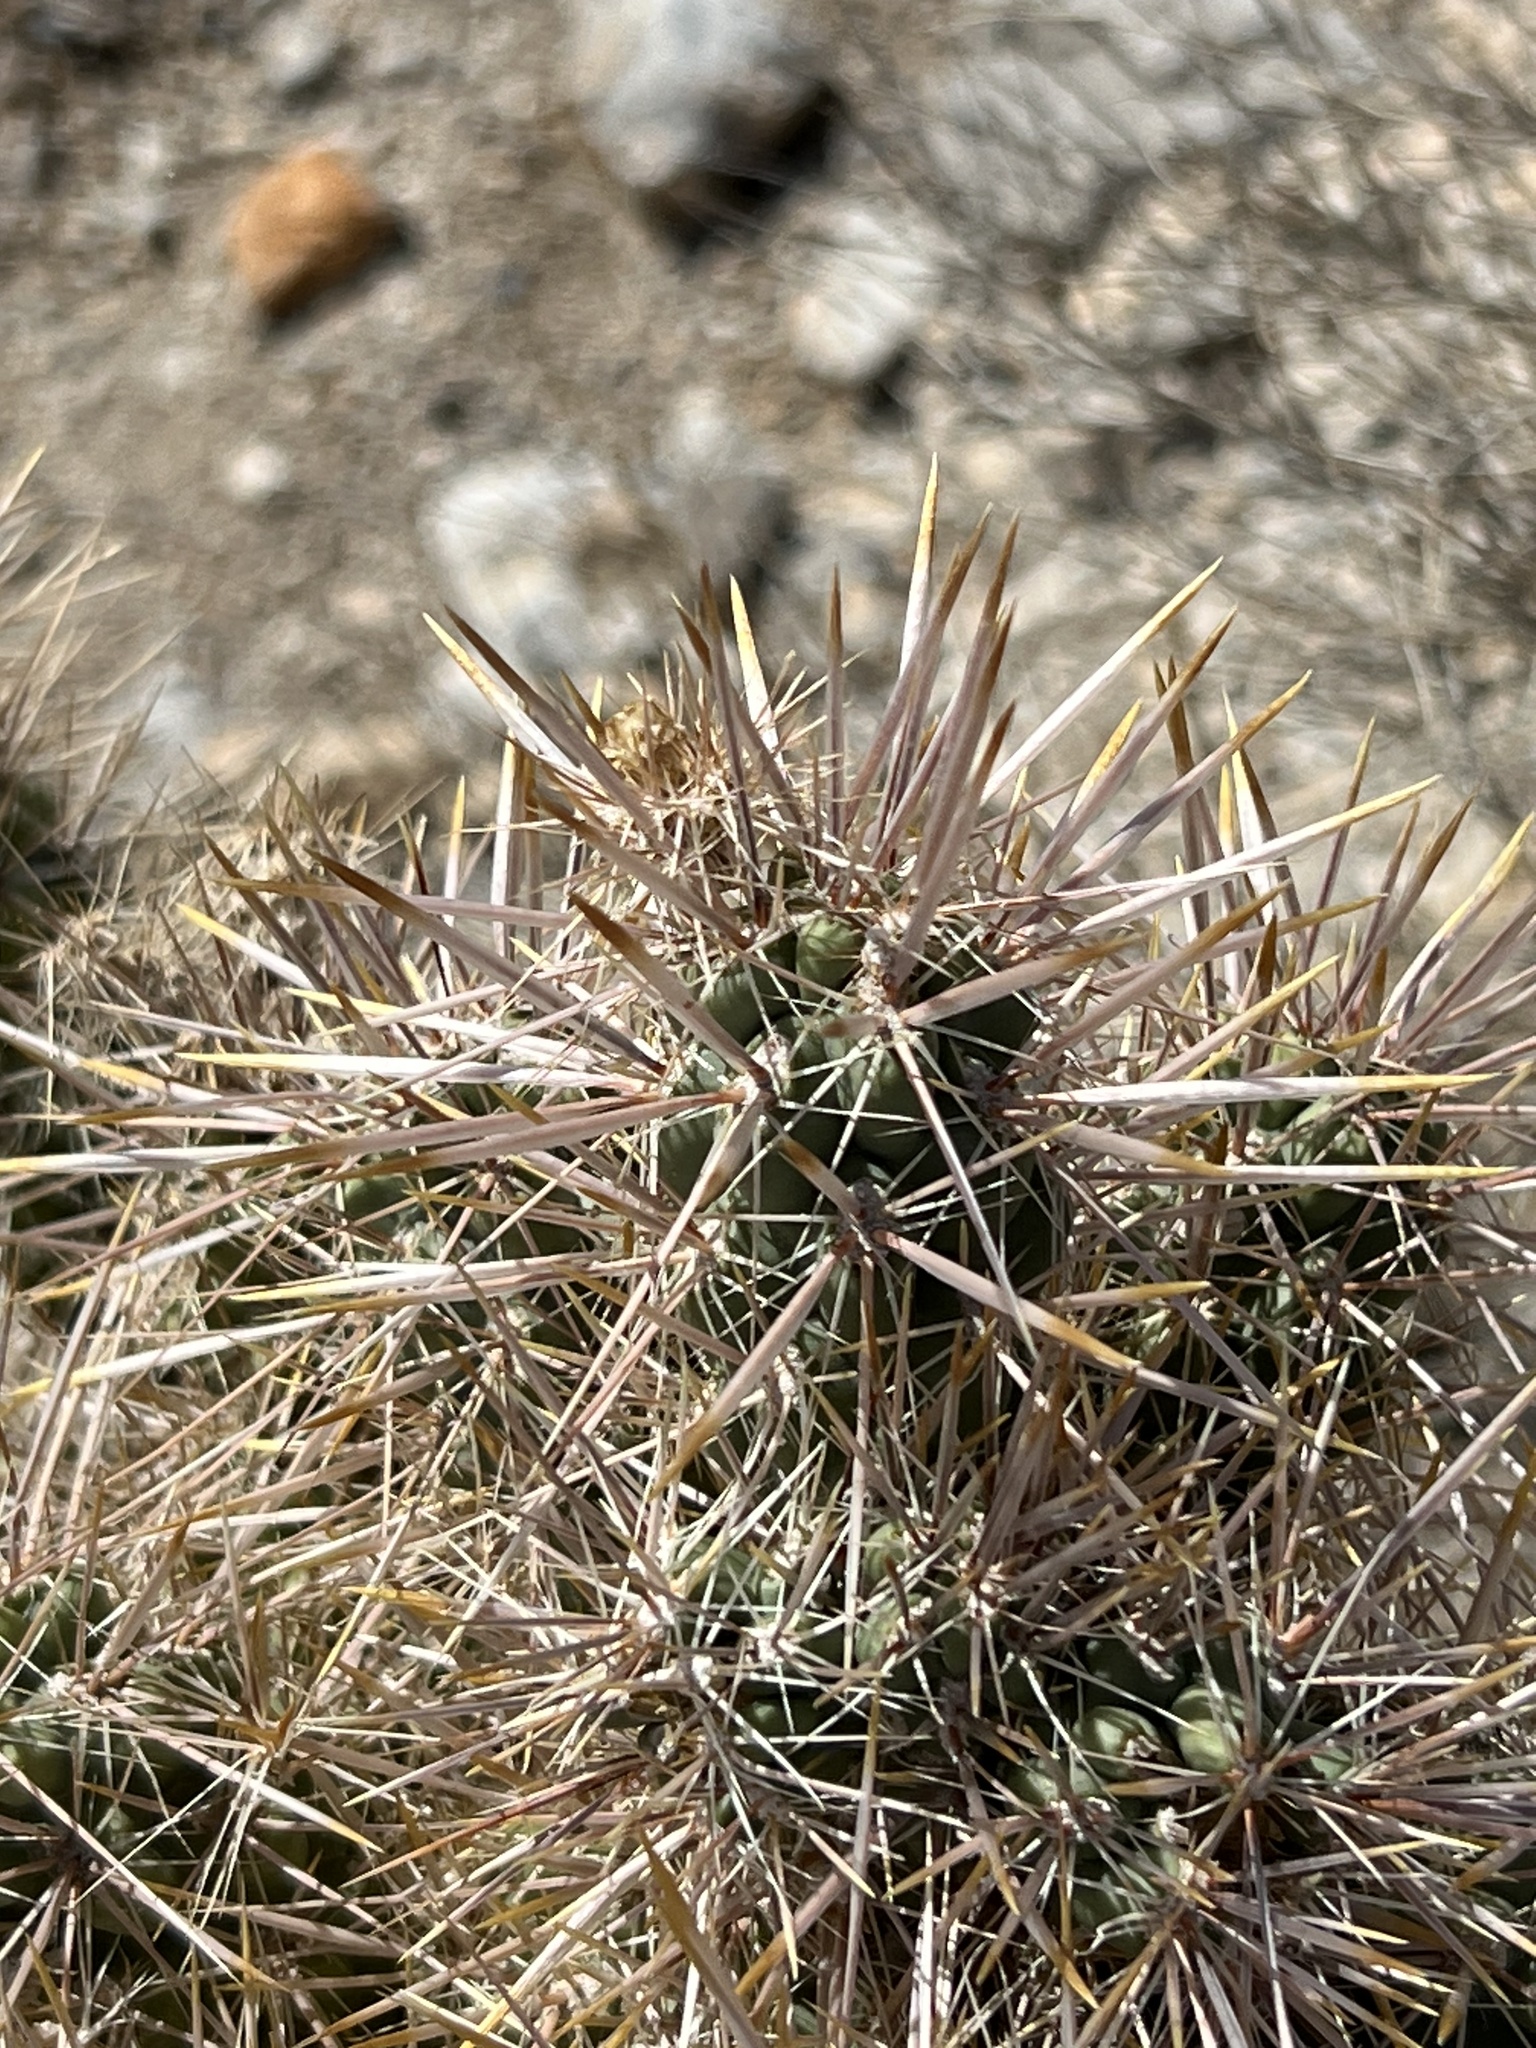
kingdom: Plantae
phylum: Tracheophyta
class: Magnoliopsida
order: Caryophyllales
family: Cactaceae
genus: Cylindropuntia
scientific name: Cylindropuntia echinocarpa
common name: Ground cholla
